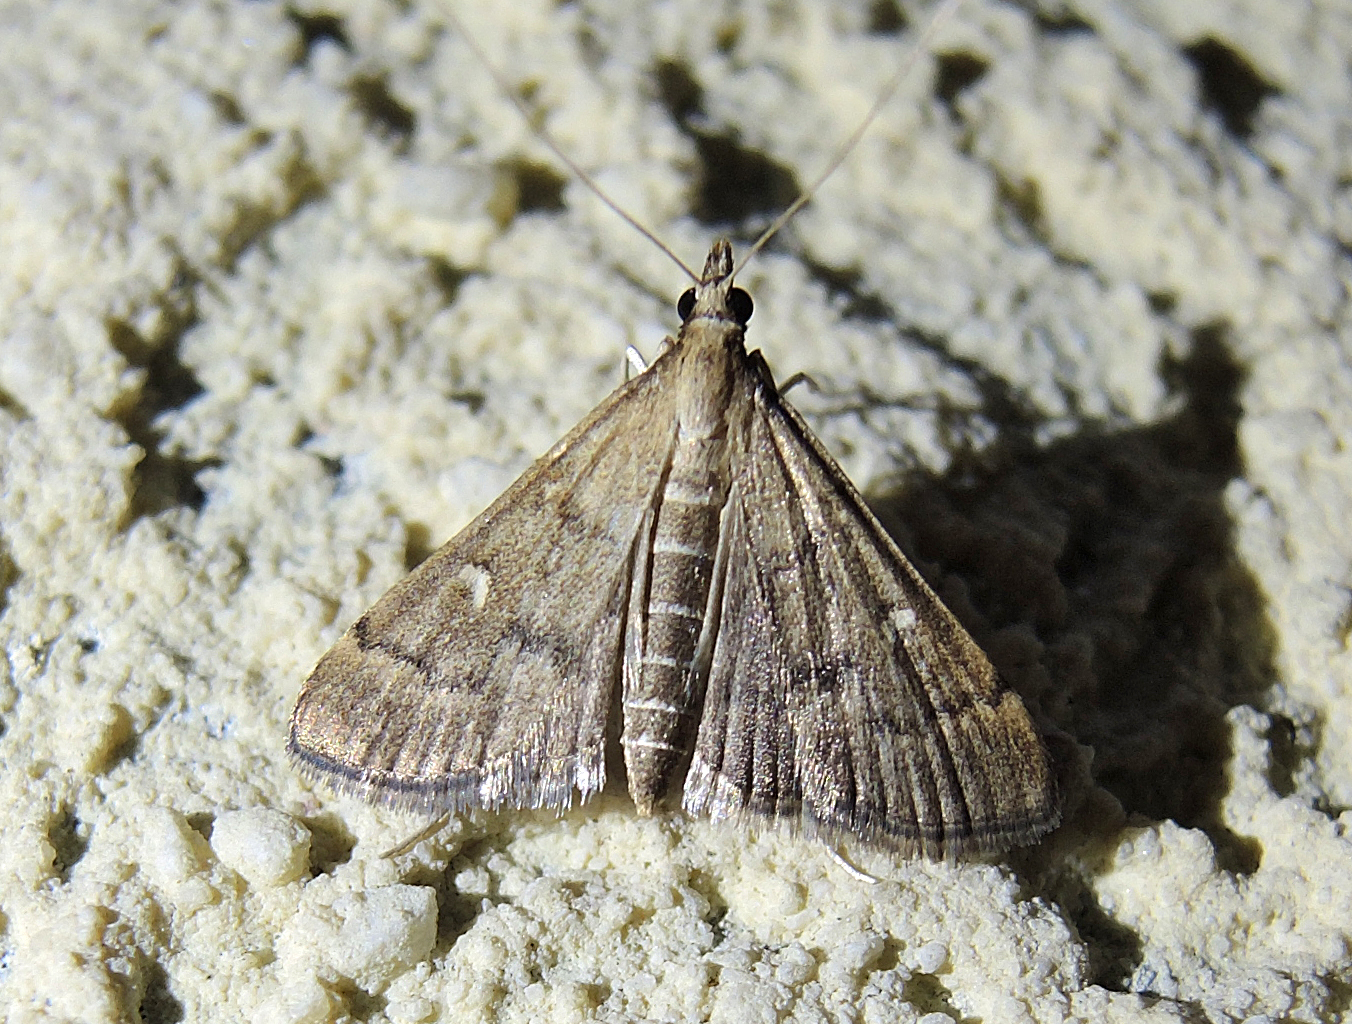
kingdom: Animalia
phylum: Arthropoda
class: Insecta
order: Lepidoptera
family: Crambidae
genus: Stenia
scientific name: Stenia Dolicharthria punctalis
